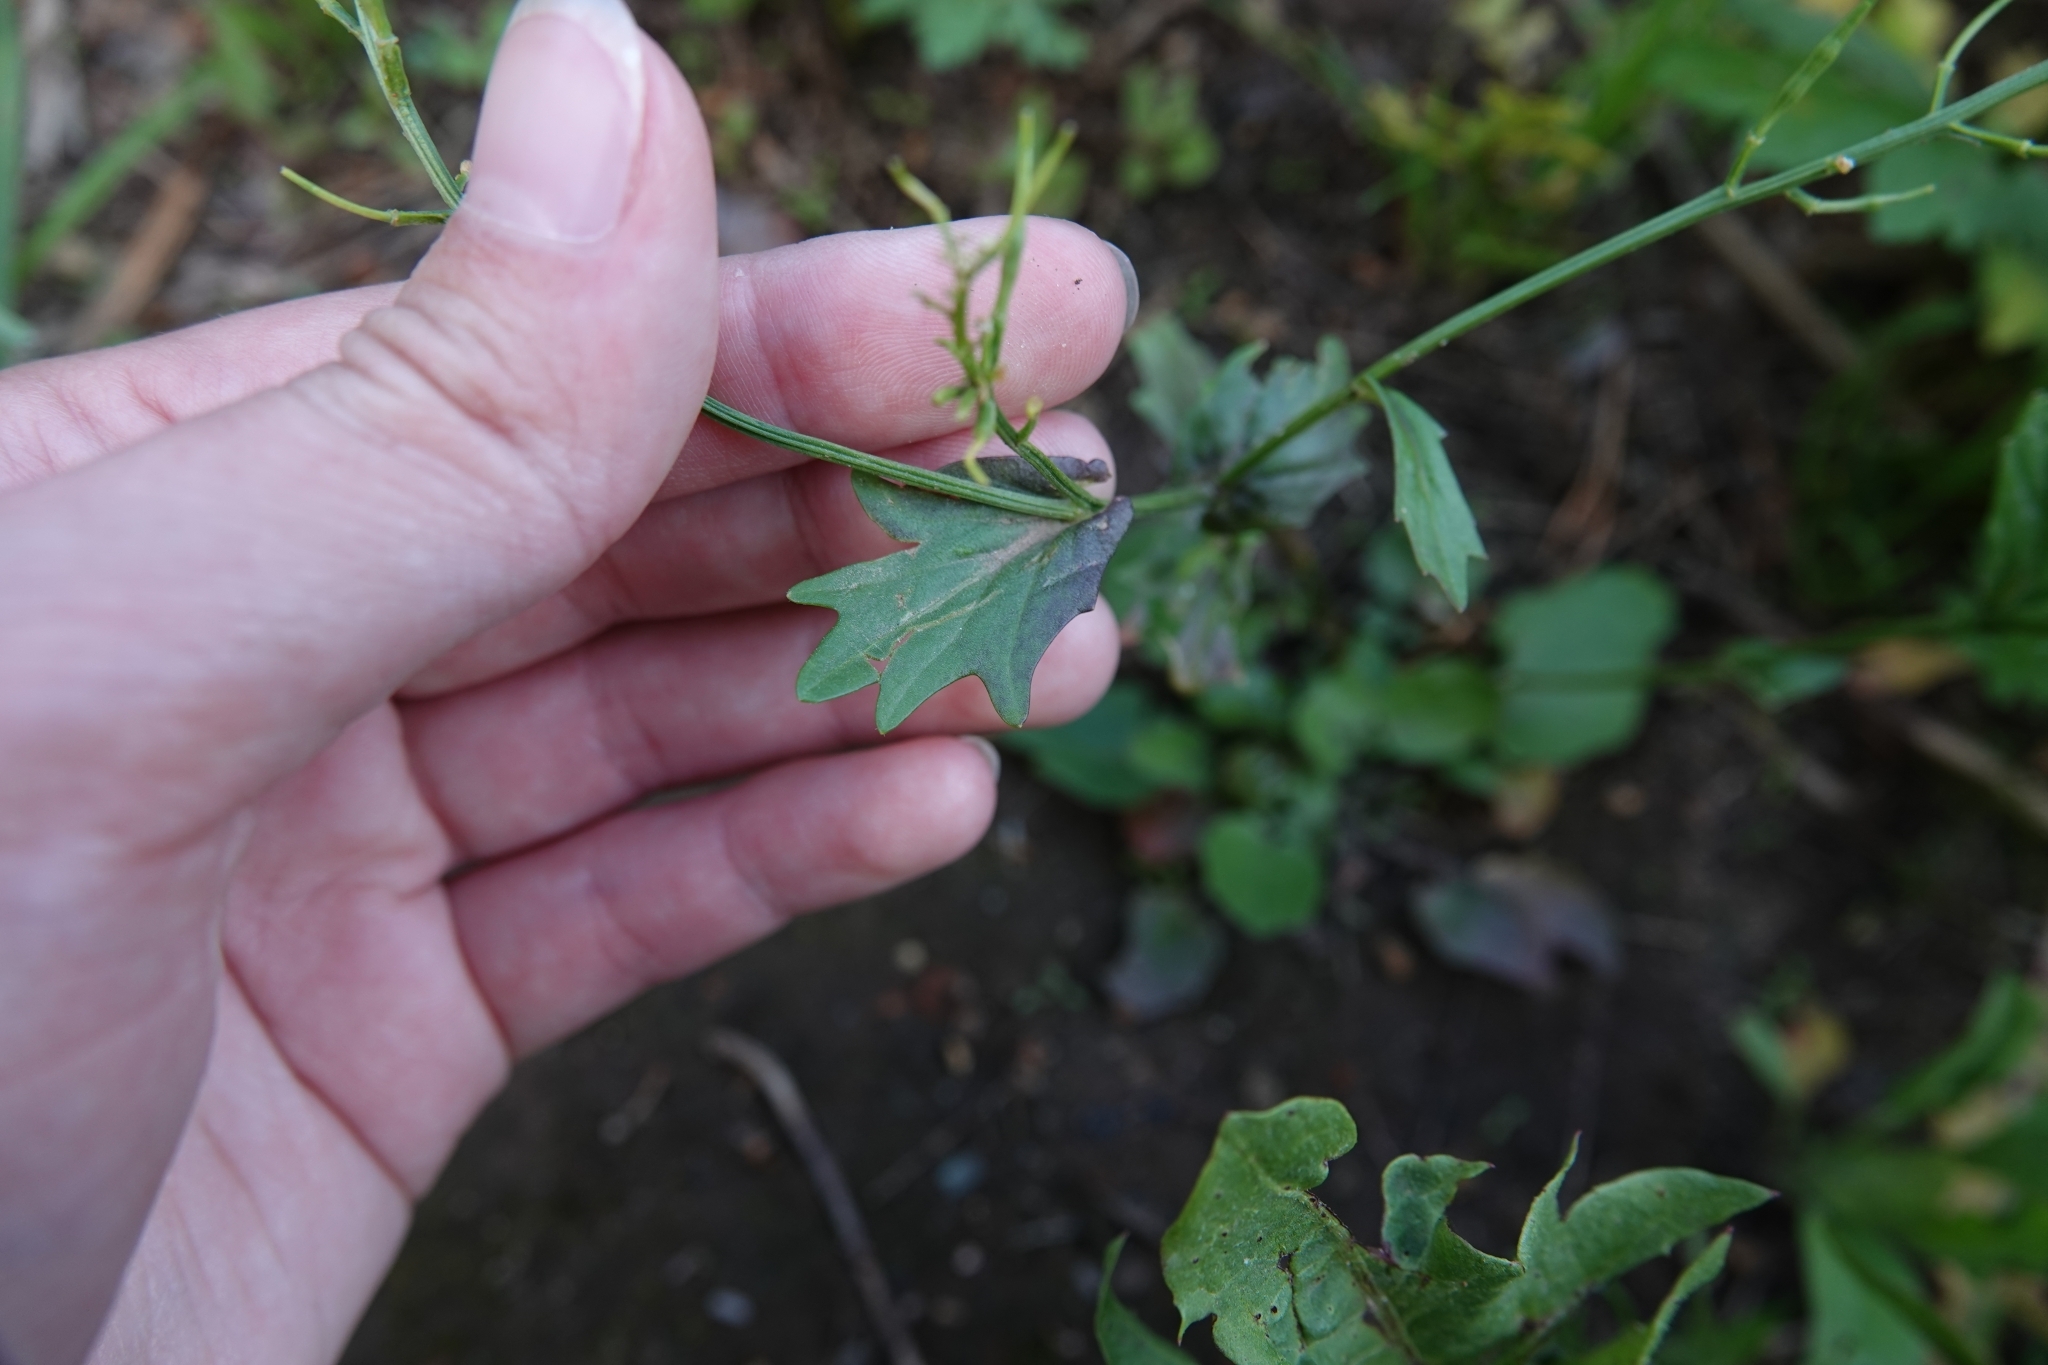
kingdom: Plantae
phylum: Tracheophyta
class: Magnoliopsida
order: Brassicales
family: Brassicaceae
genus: Barbarea
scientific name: Barbarea vulgaris
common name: Cressy-greens
